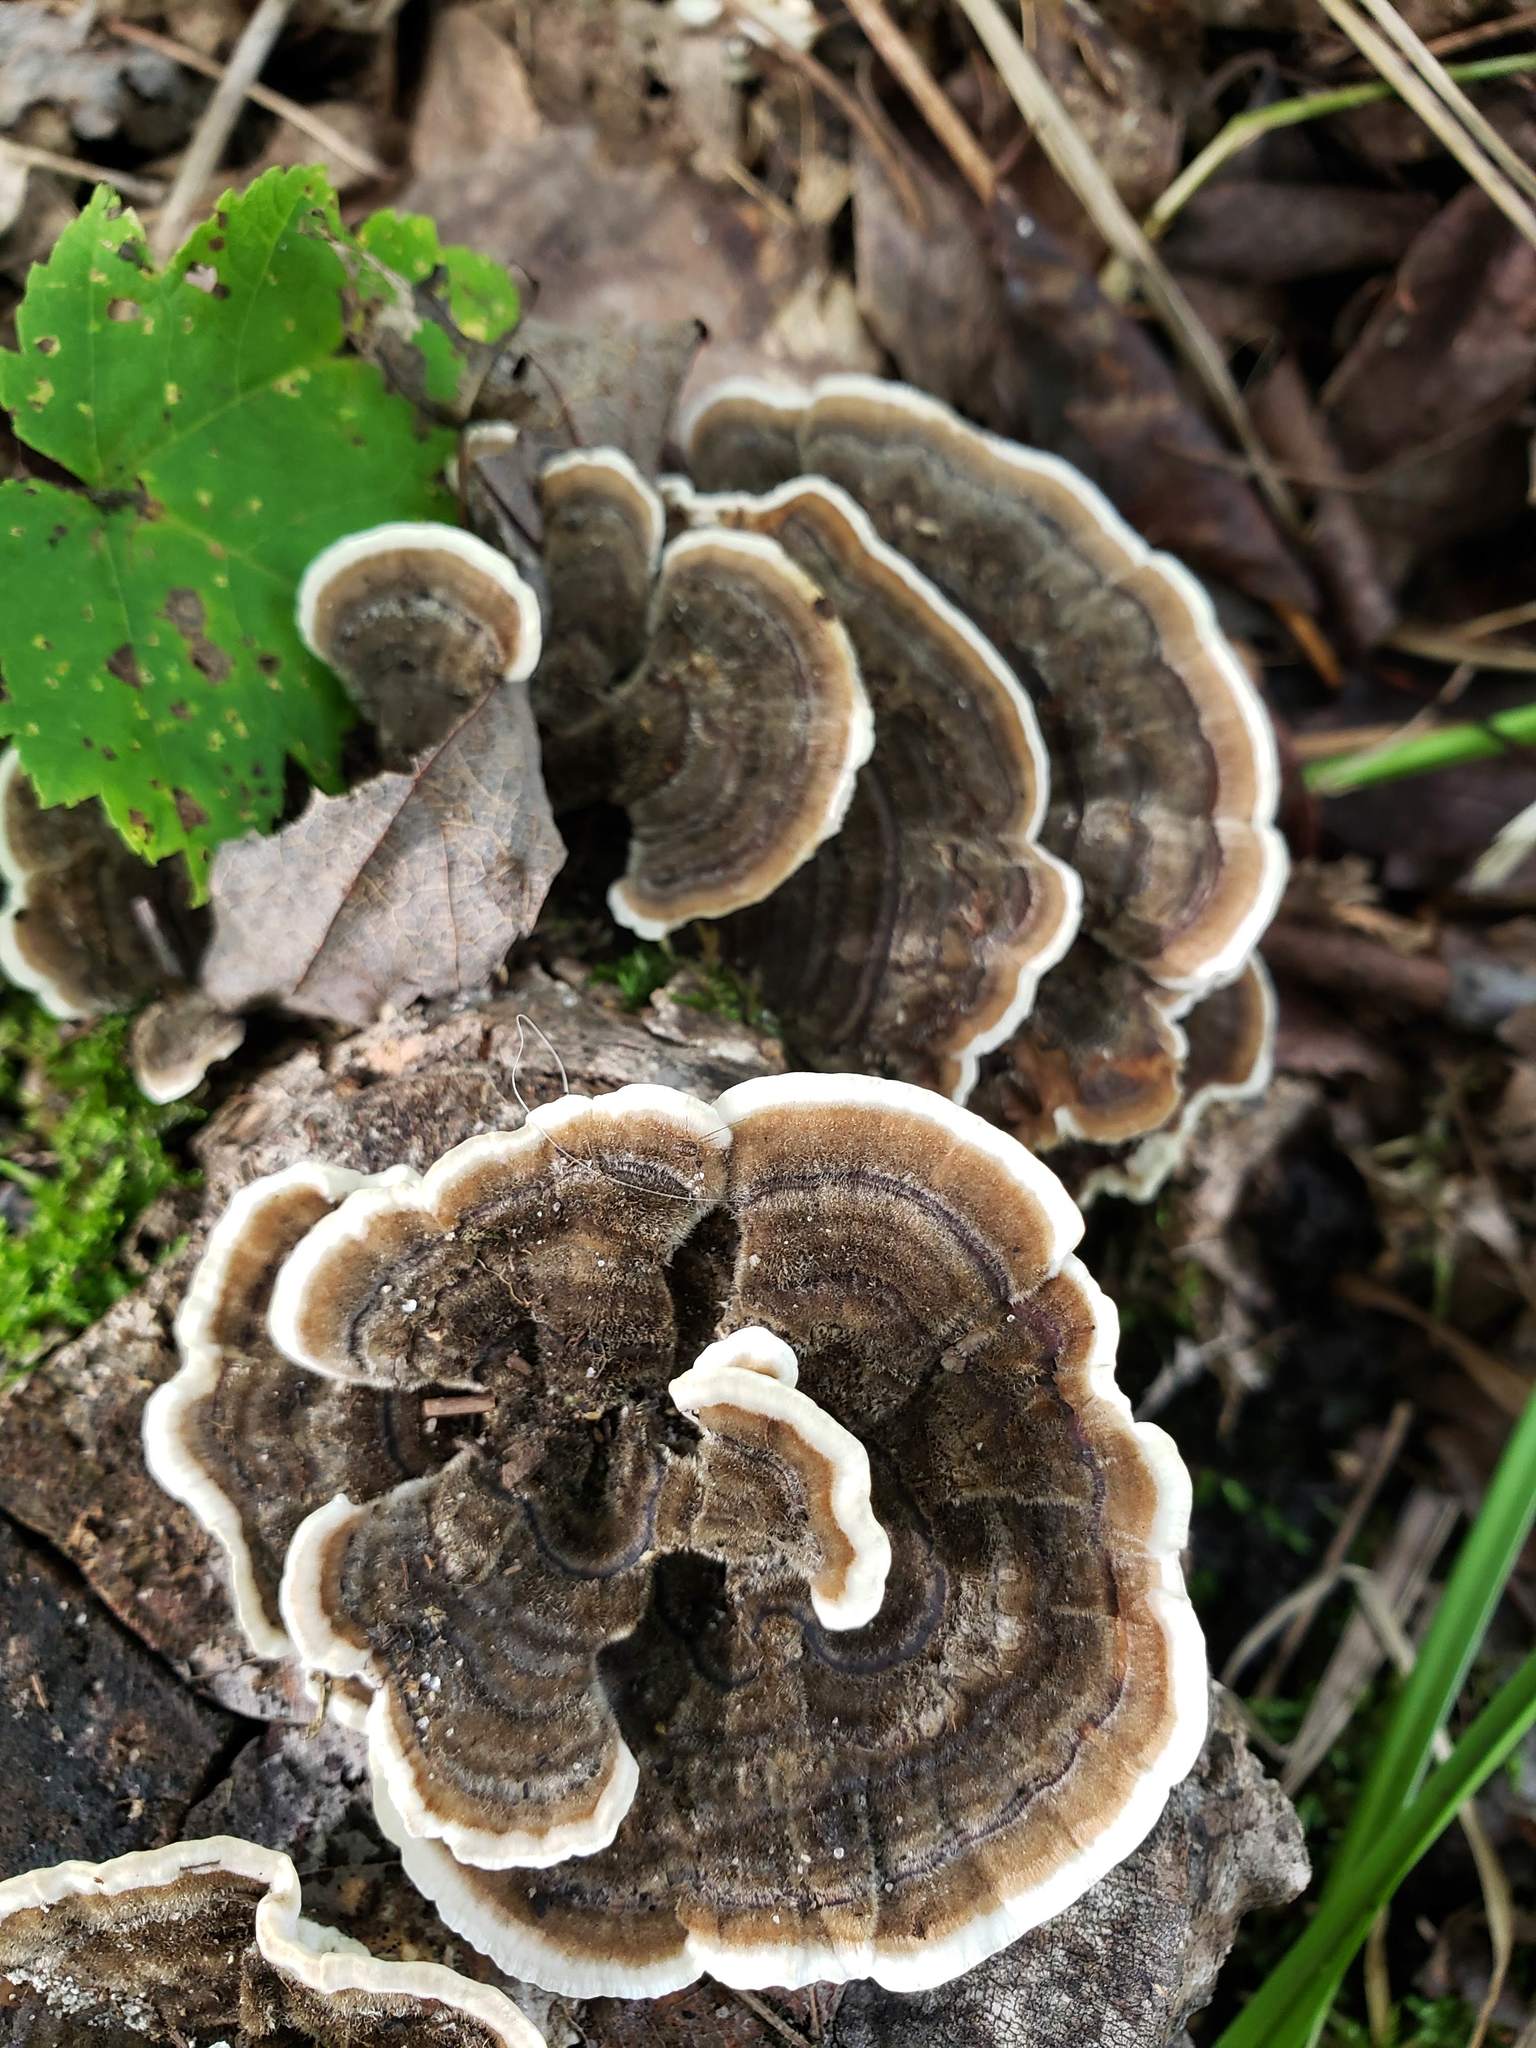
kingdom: Fungi
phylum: Basidiomycota
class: Agaricomycetes
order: Polyporales
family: Polyporaceae
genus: Trametes
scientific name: Trametes versicolor
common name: Turkeytail
